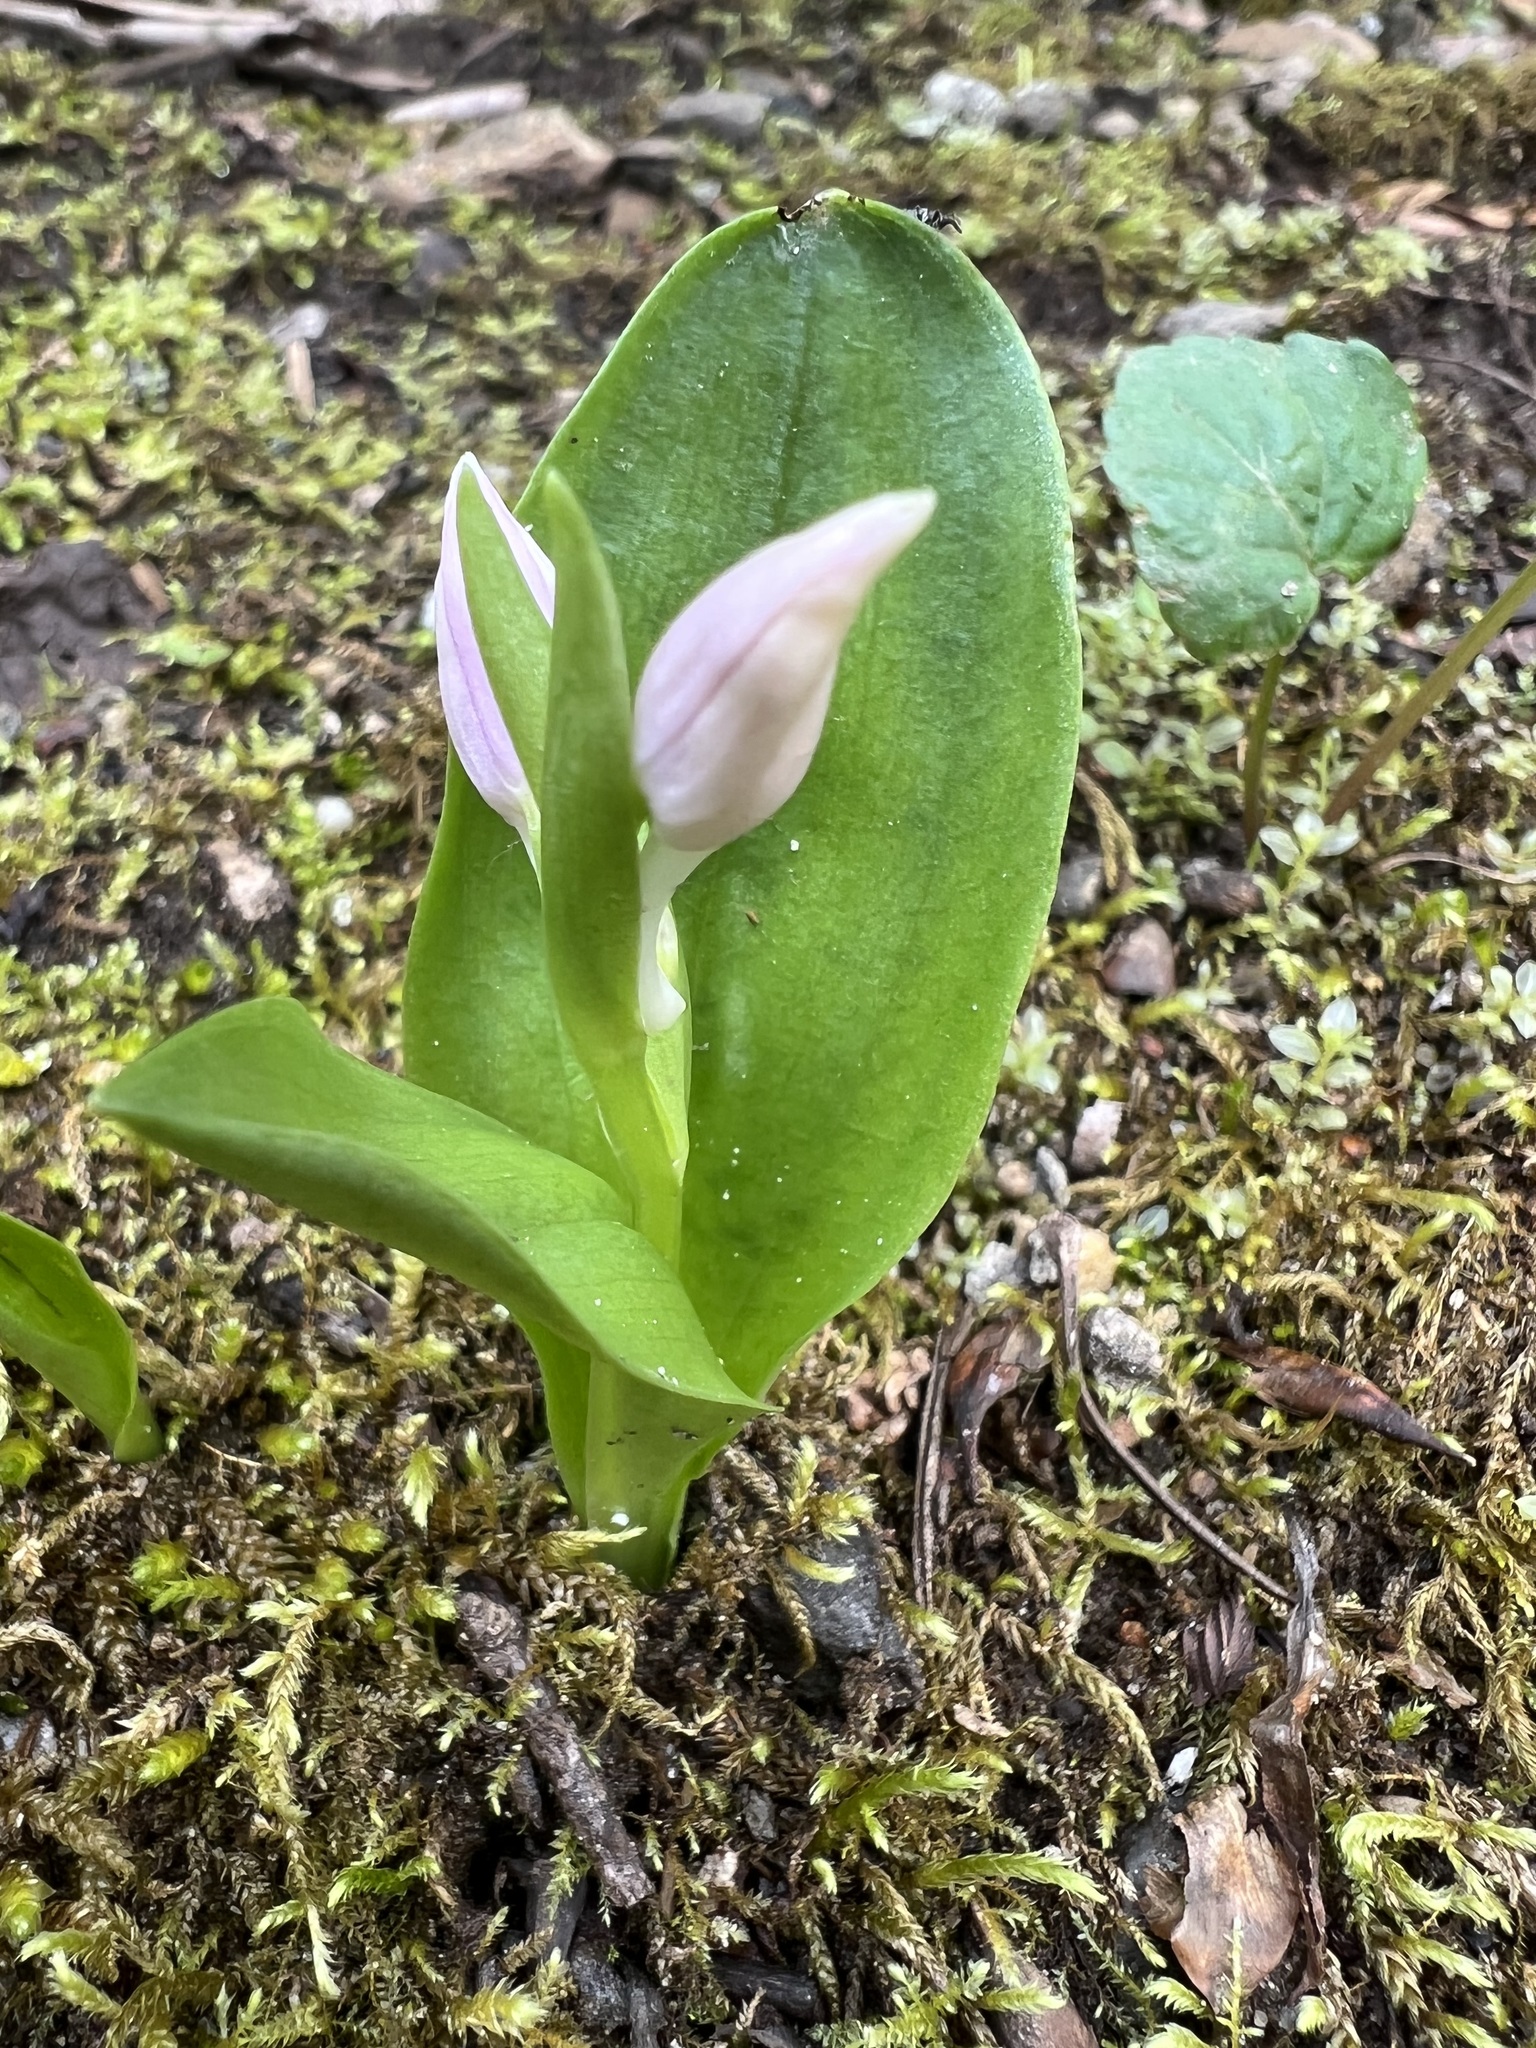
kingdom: Plantae
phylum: Tracheophyta
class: Liliopsida
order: Asparagales
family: Orchidaceae
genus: Galearis
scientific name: Galearis spectabilis
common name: Purple-hooded orchis
